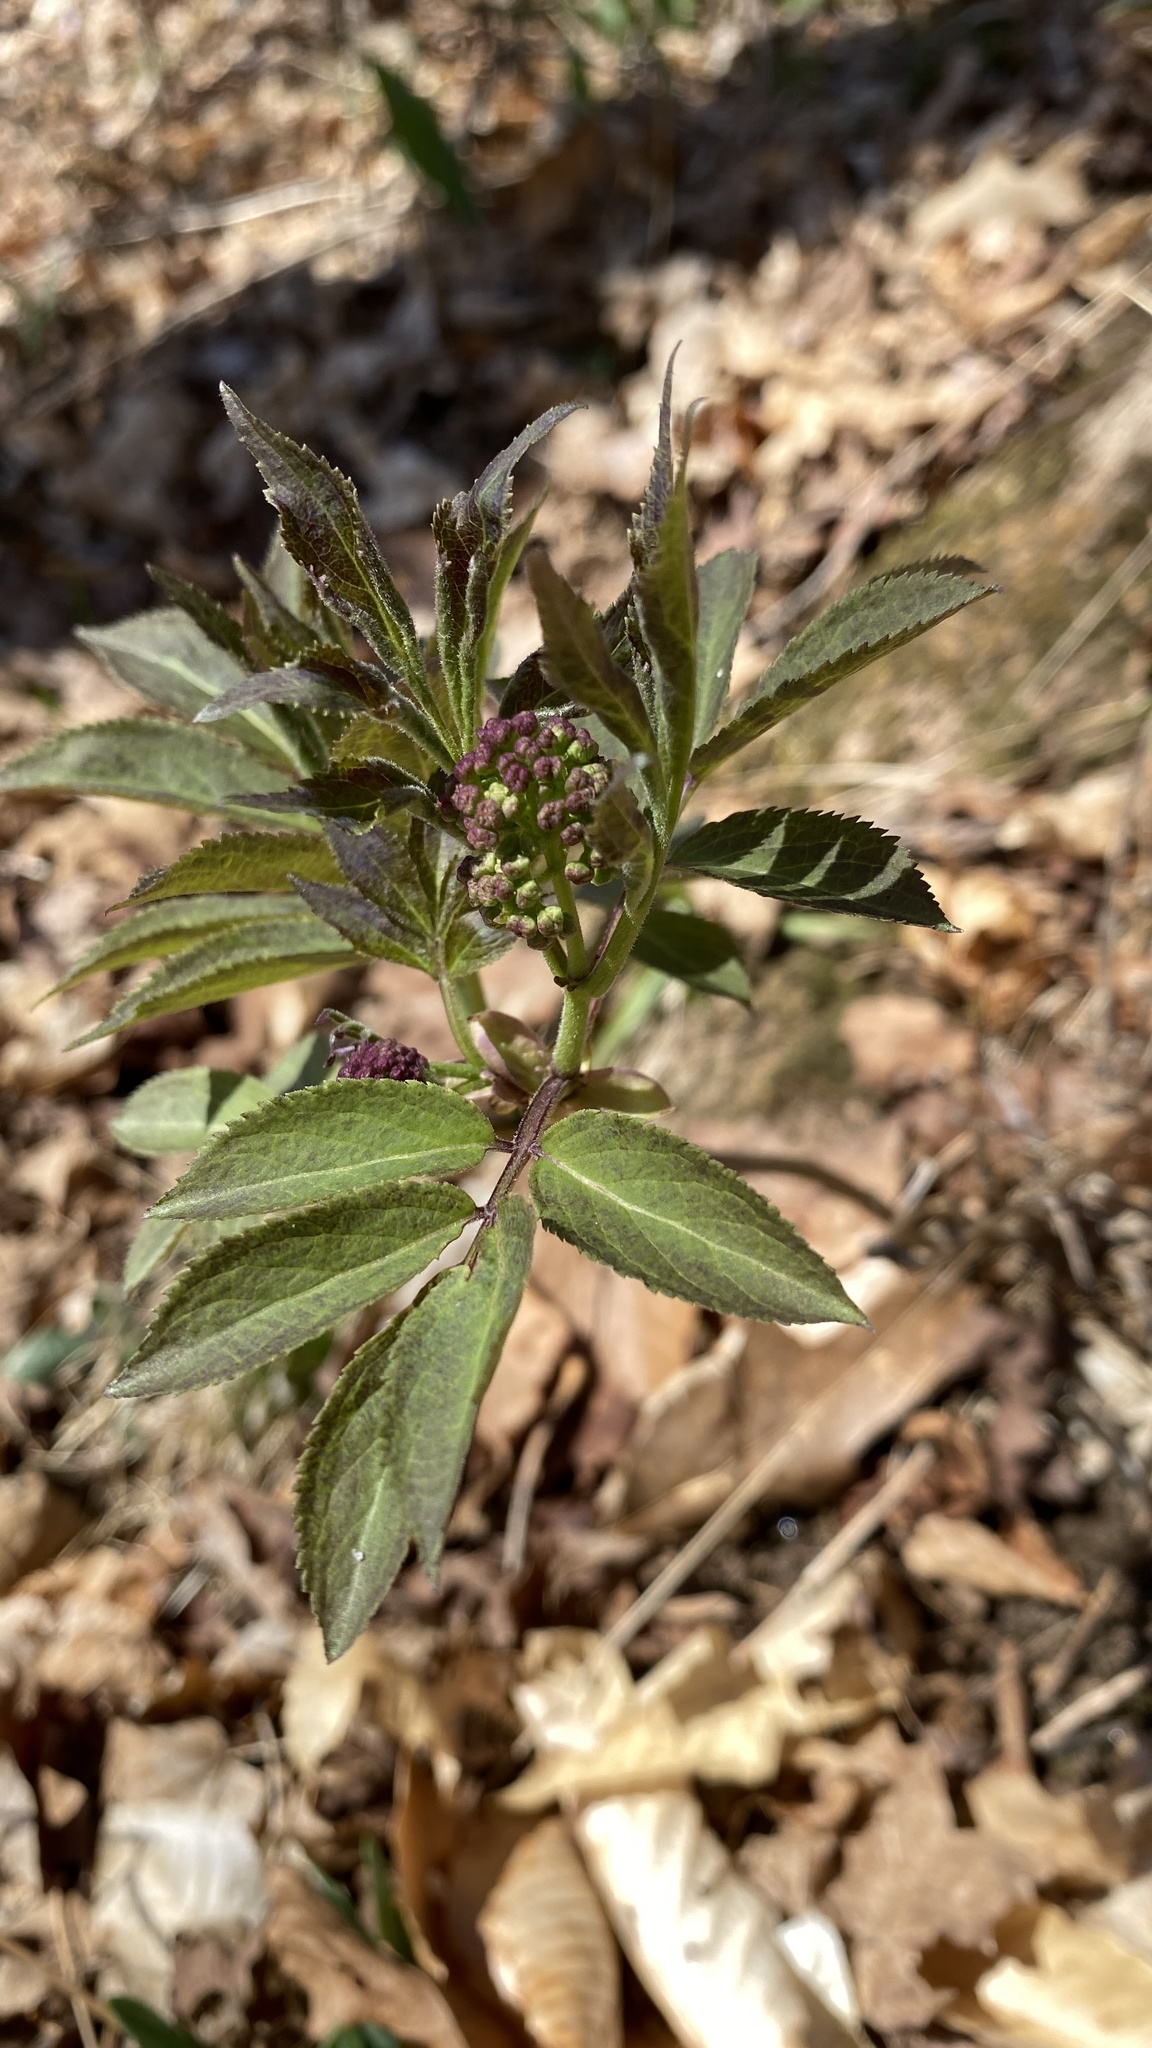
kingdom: Plantae
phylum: Tracheophyta
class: Magnoliopsida
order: Dipsacales
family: Viburnaceae
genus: Sambucus
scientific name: Sambucus racemosa
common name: Red-berried elder
